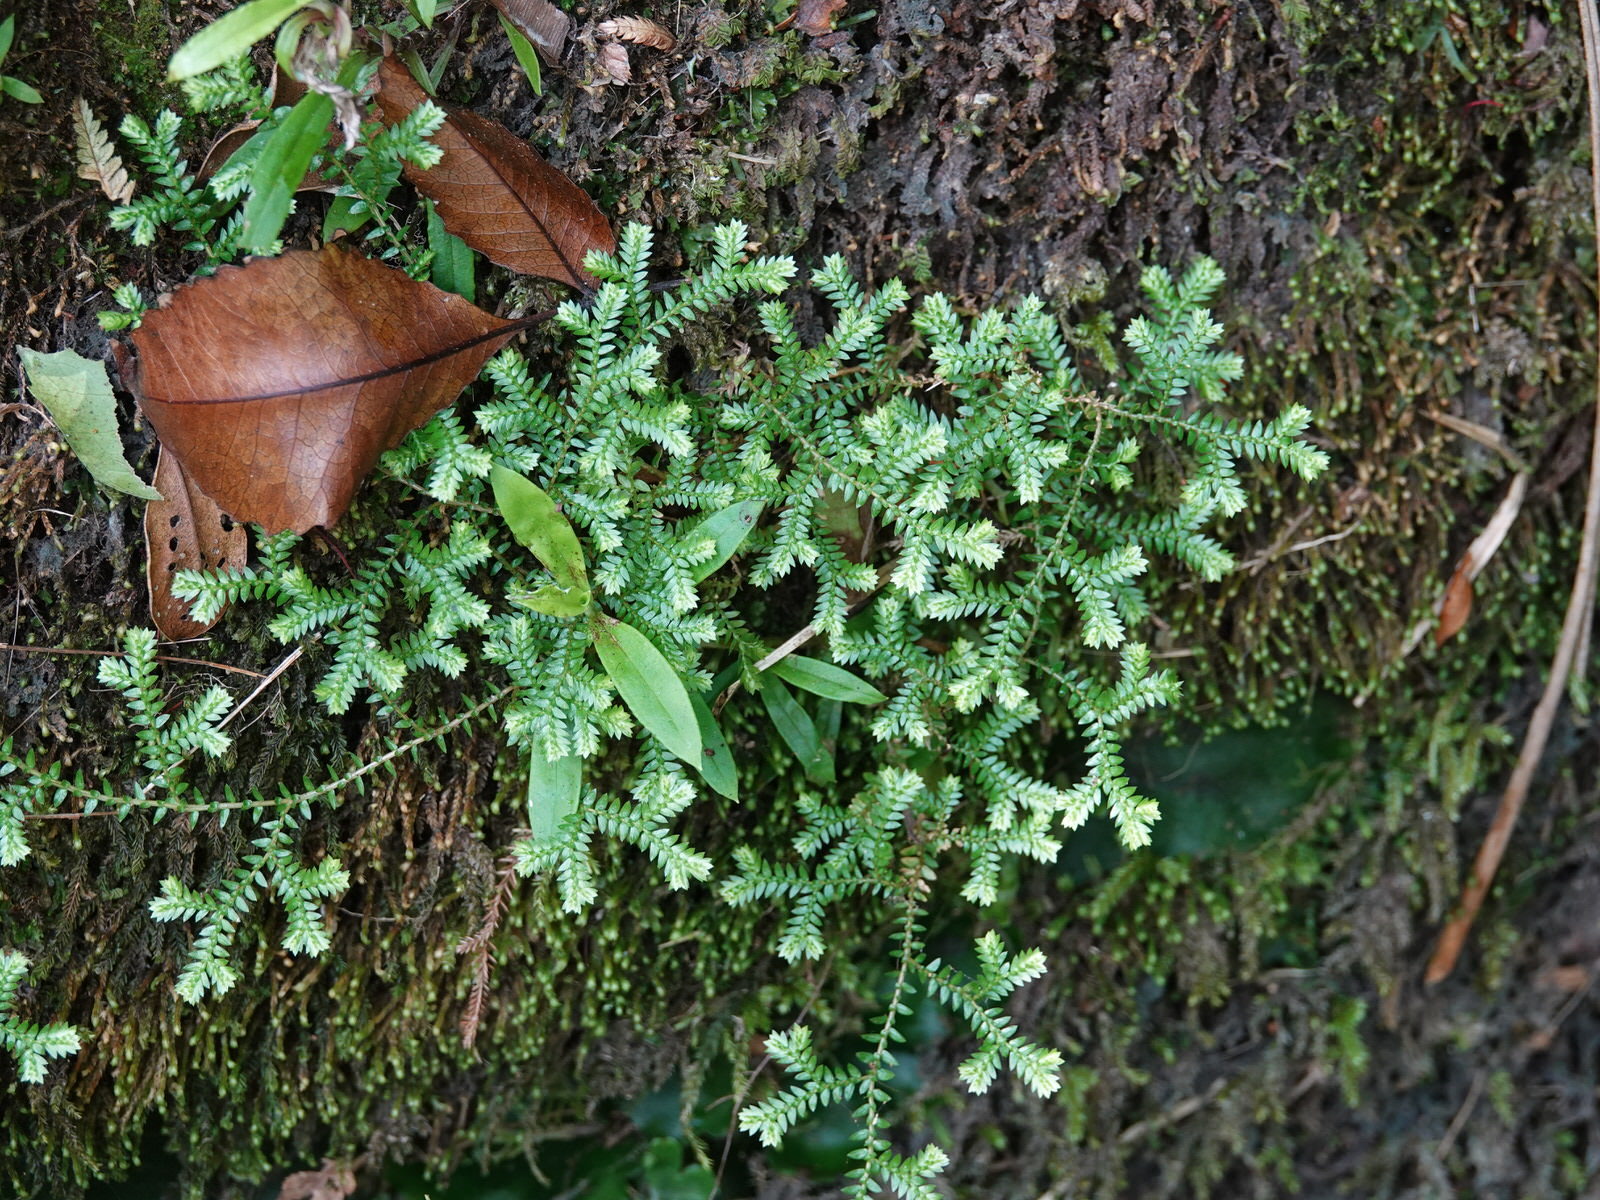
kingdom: Plantae
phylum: Tracheophyta
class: Lycopodiopsida
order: Selaginellales
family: Selaginellaceae
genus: Selaginella
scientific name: Selaginella kraussiana
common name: Krauss' spikemoss
